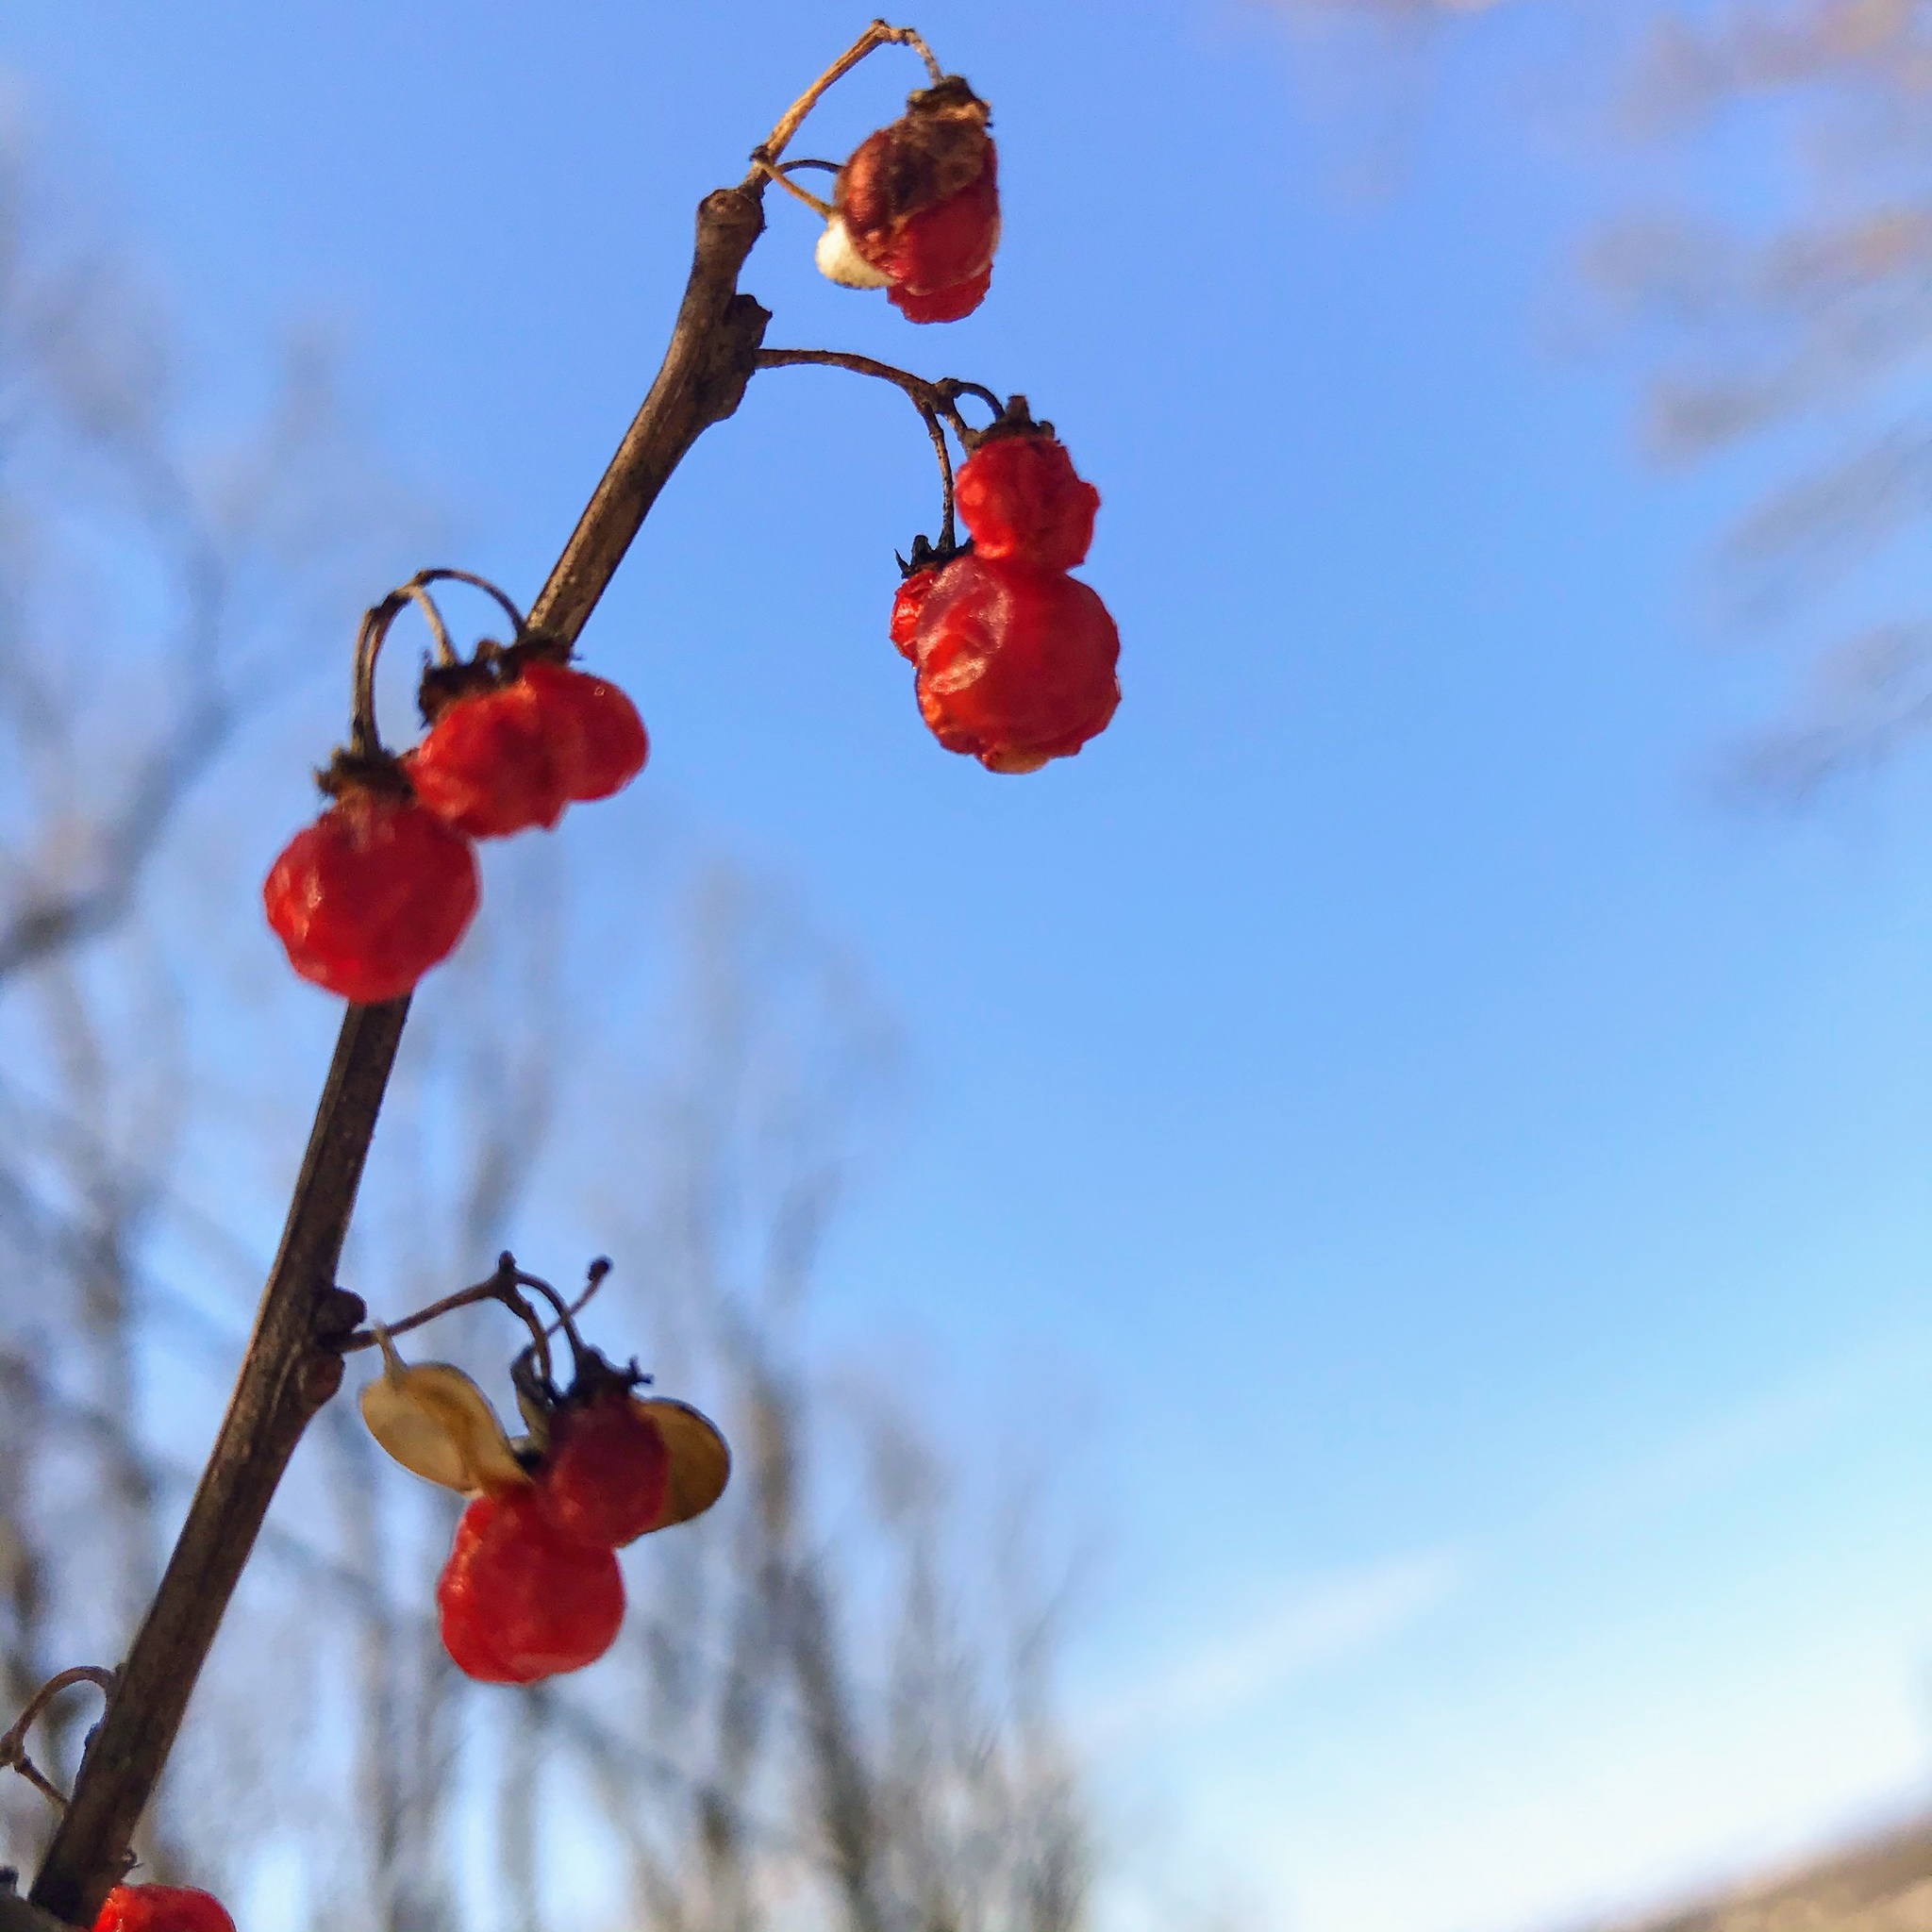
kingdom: Plantae
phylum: Tracheophyta
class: Magnoliopsida
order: Celastrales
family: Celastraceae
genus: Celastrus
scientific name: Celastrus orbiculatus
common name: Oriental bittersweet
